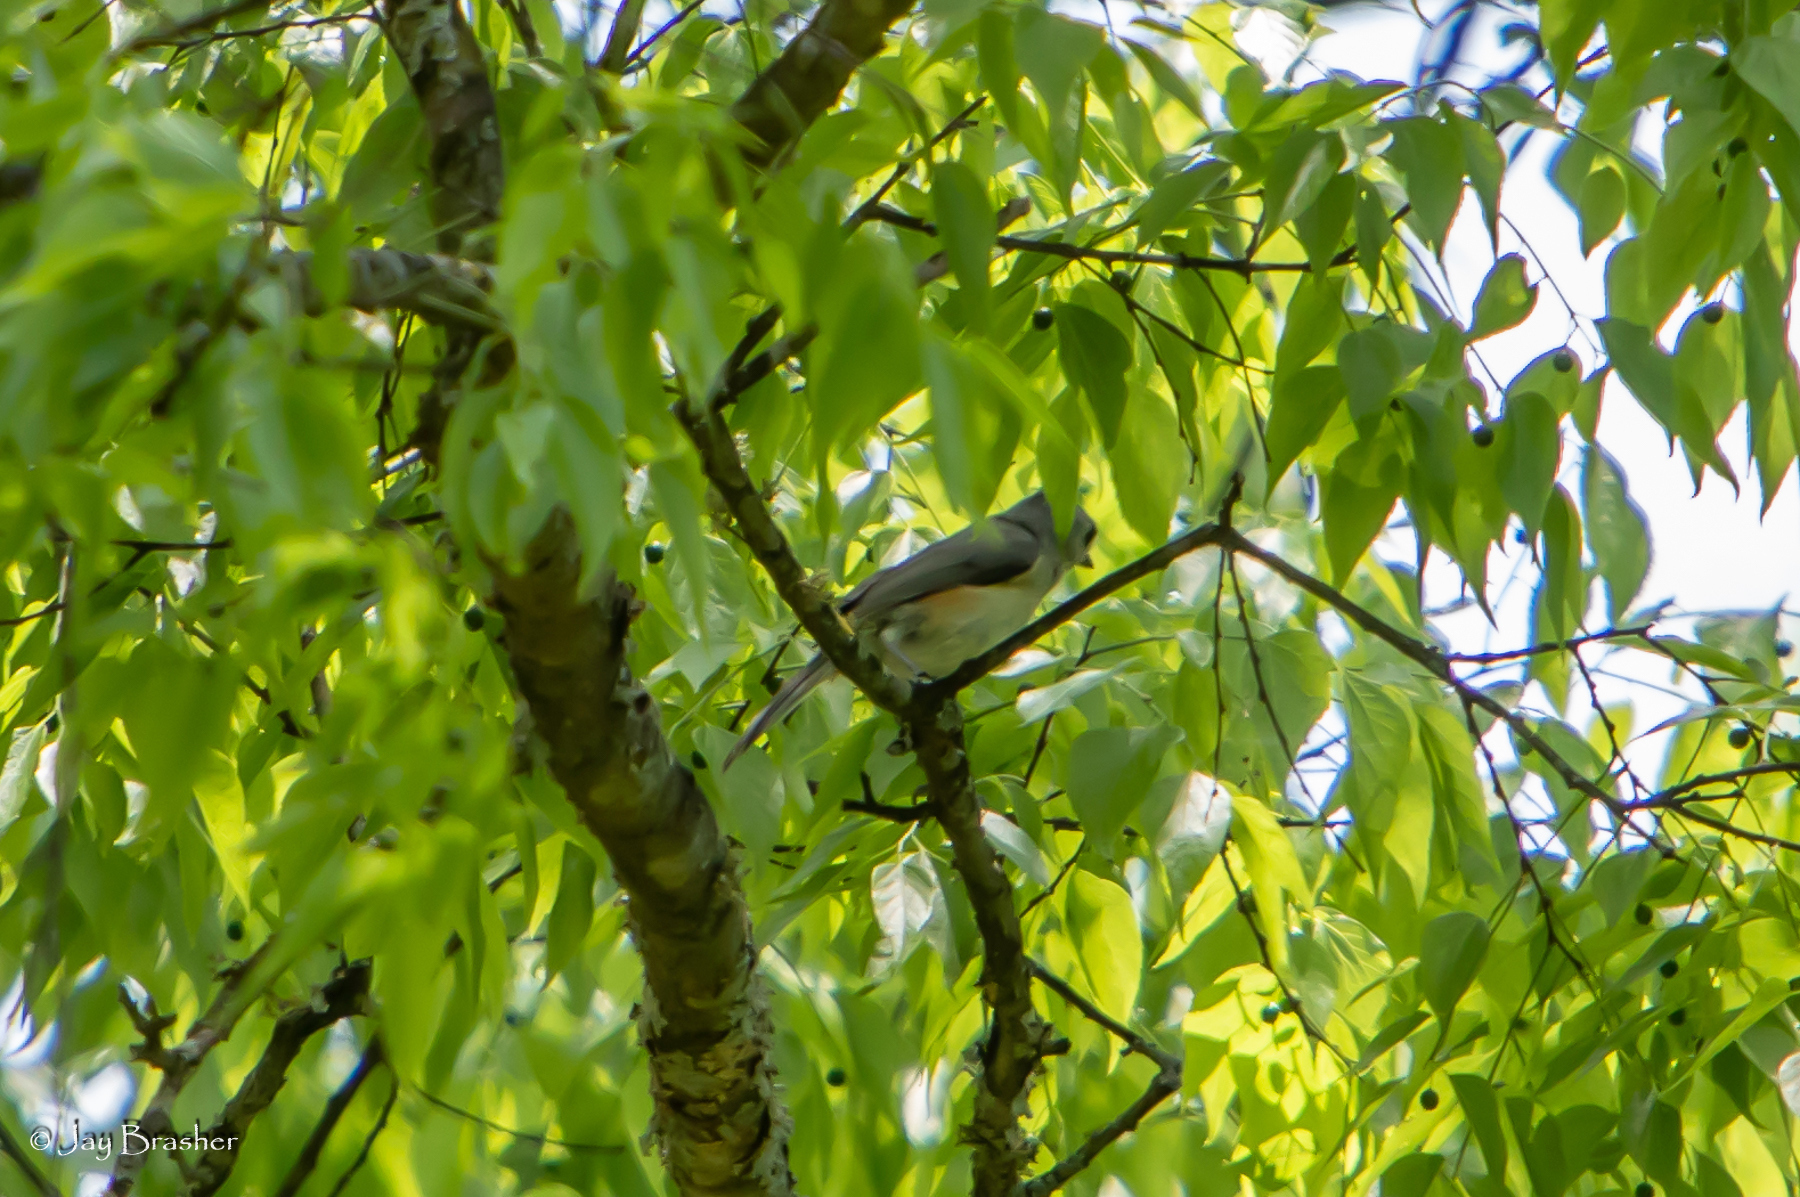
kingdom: Animalia
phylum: Chordata
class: Aves
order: Passeriformes
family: Paridae
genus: Baeolophus
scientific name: Baeolophus bicolor
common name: Tufted titmouse
